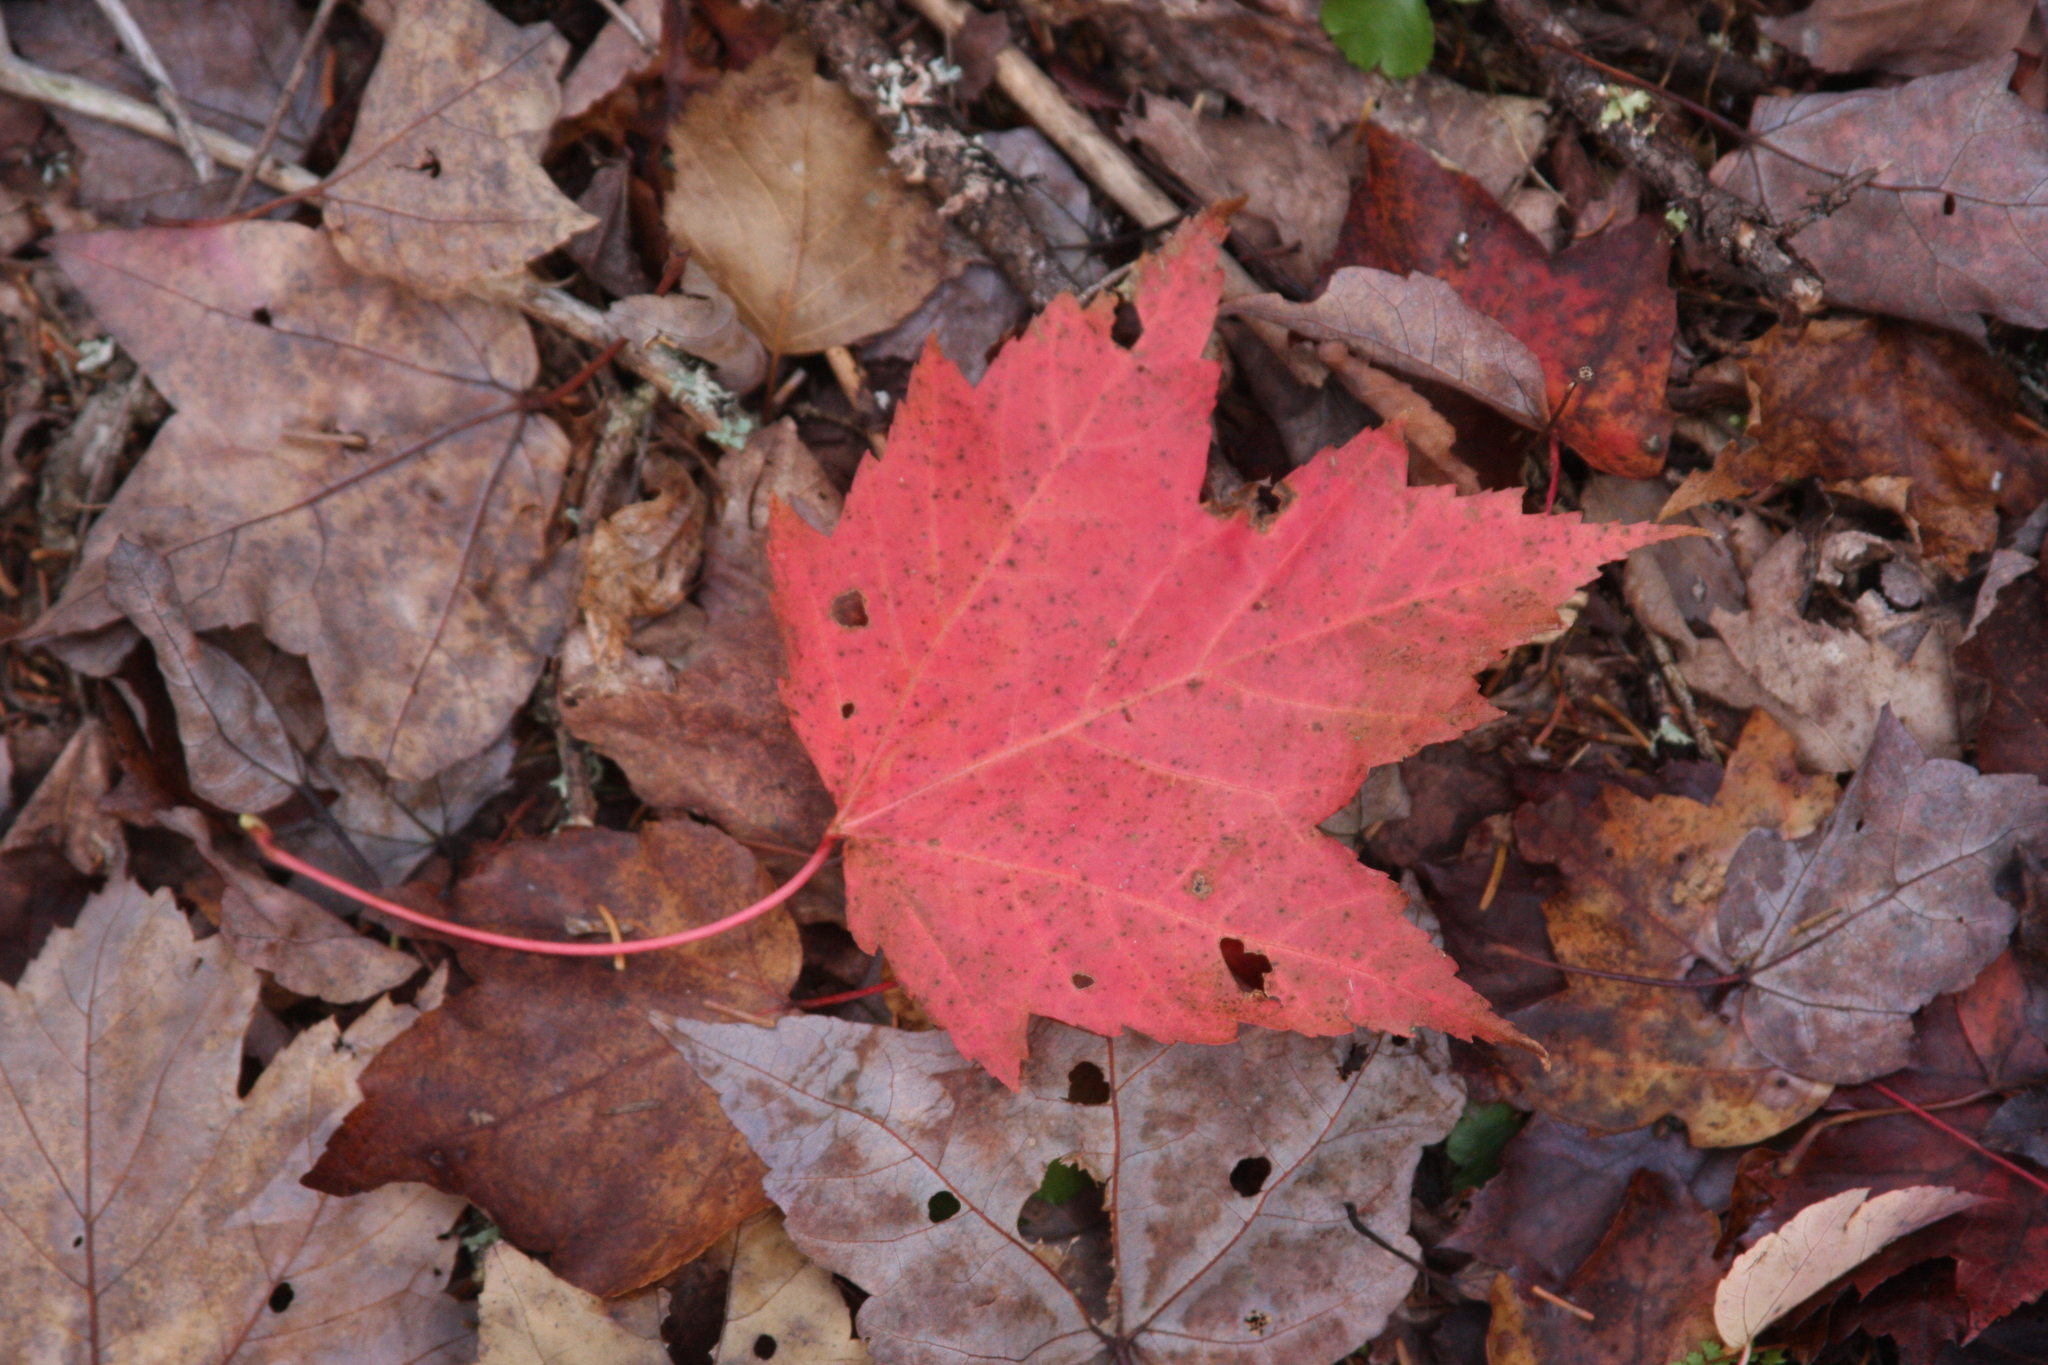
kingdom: Plantae
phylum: Tracheophyta
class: Magnoliopsida
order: Sapindales
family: Sapindaceae
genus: Acer
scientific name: Acer rubrum
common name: Red maple
